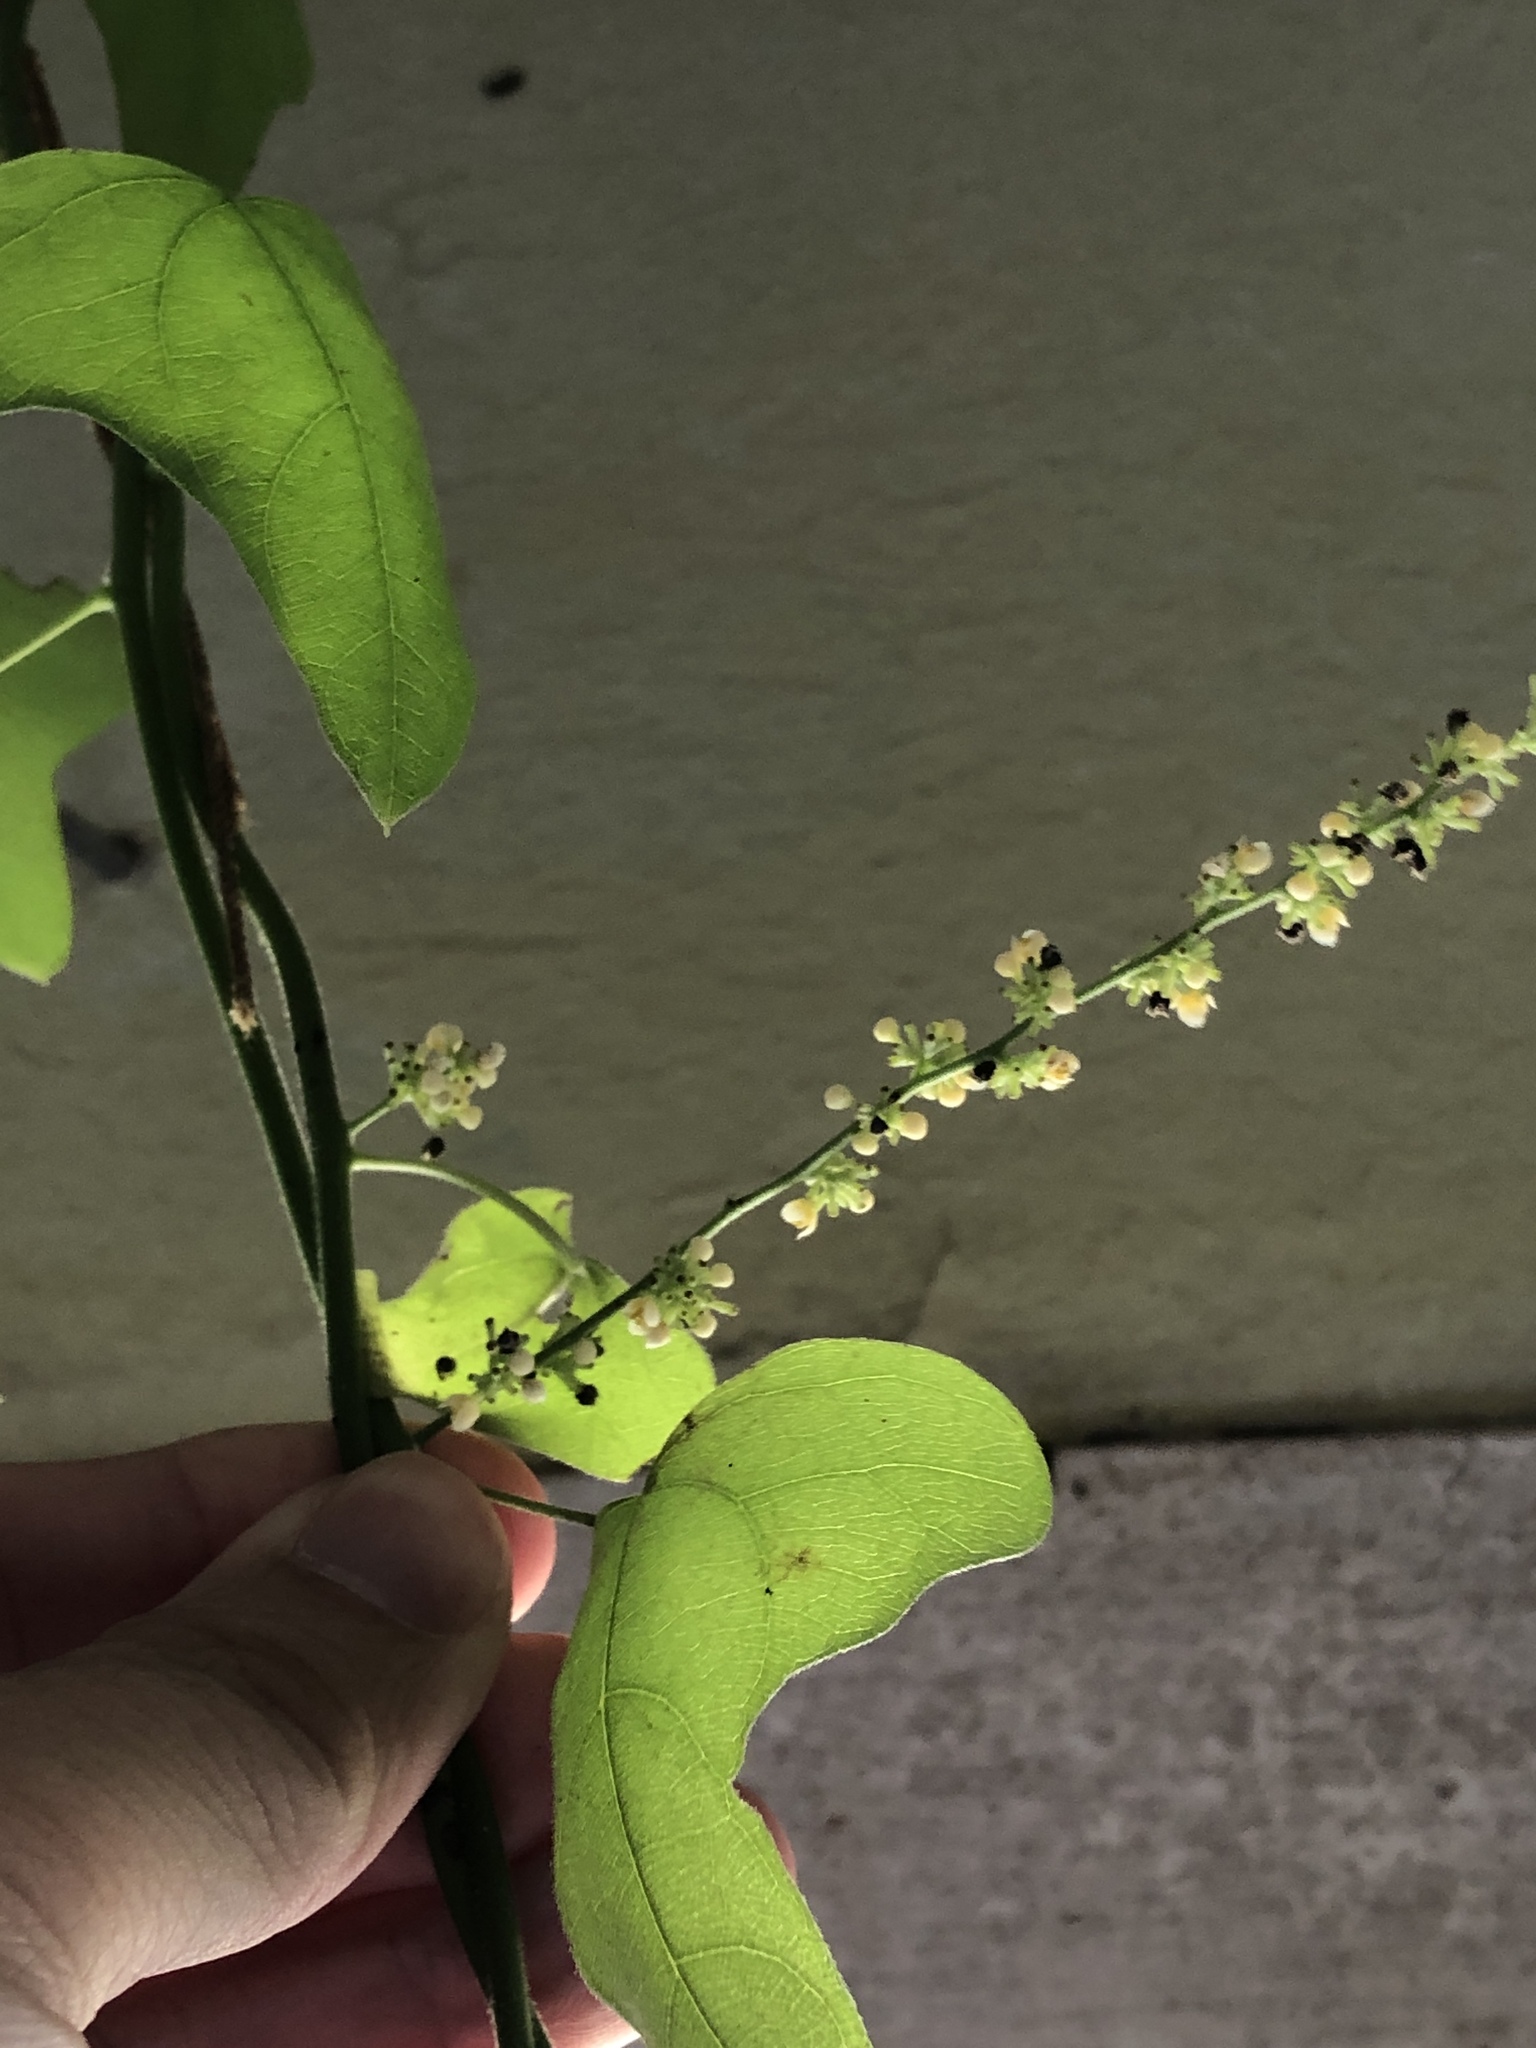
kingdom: Plantae
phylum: Tracheophyta
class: Magnoliopsida
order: Ranunculales
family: Menispermaceae
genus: Cocculus
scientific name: Cocculus carolinus
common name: Carolina moonseed
